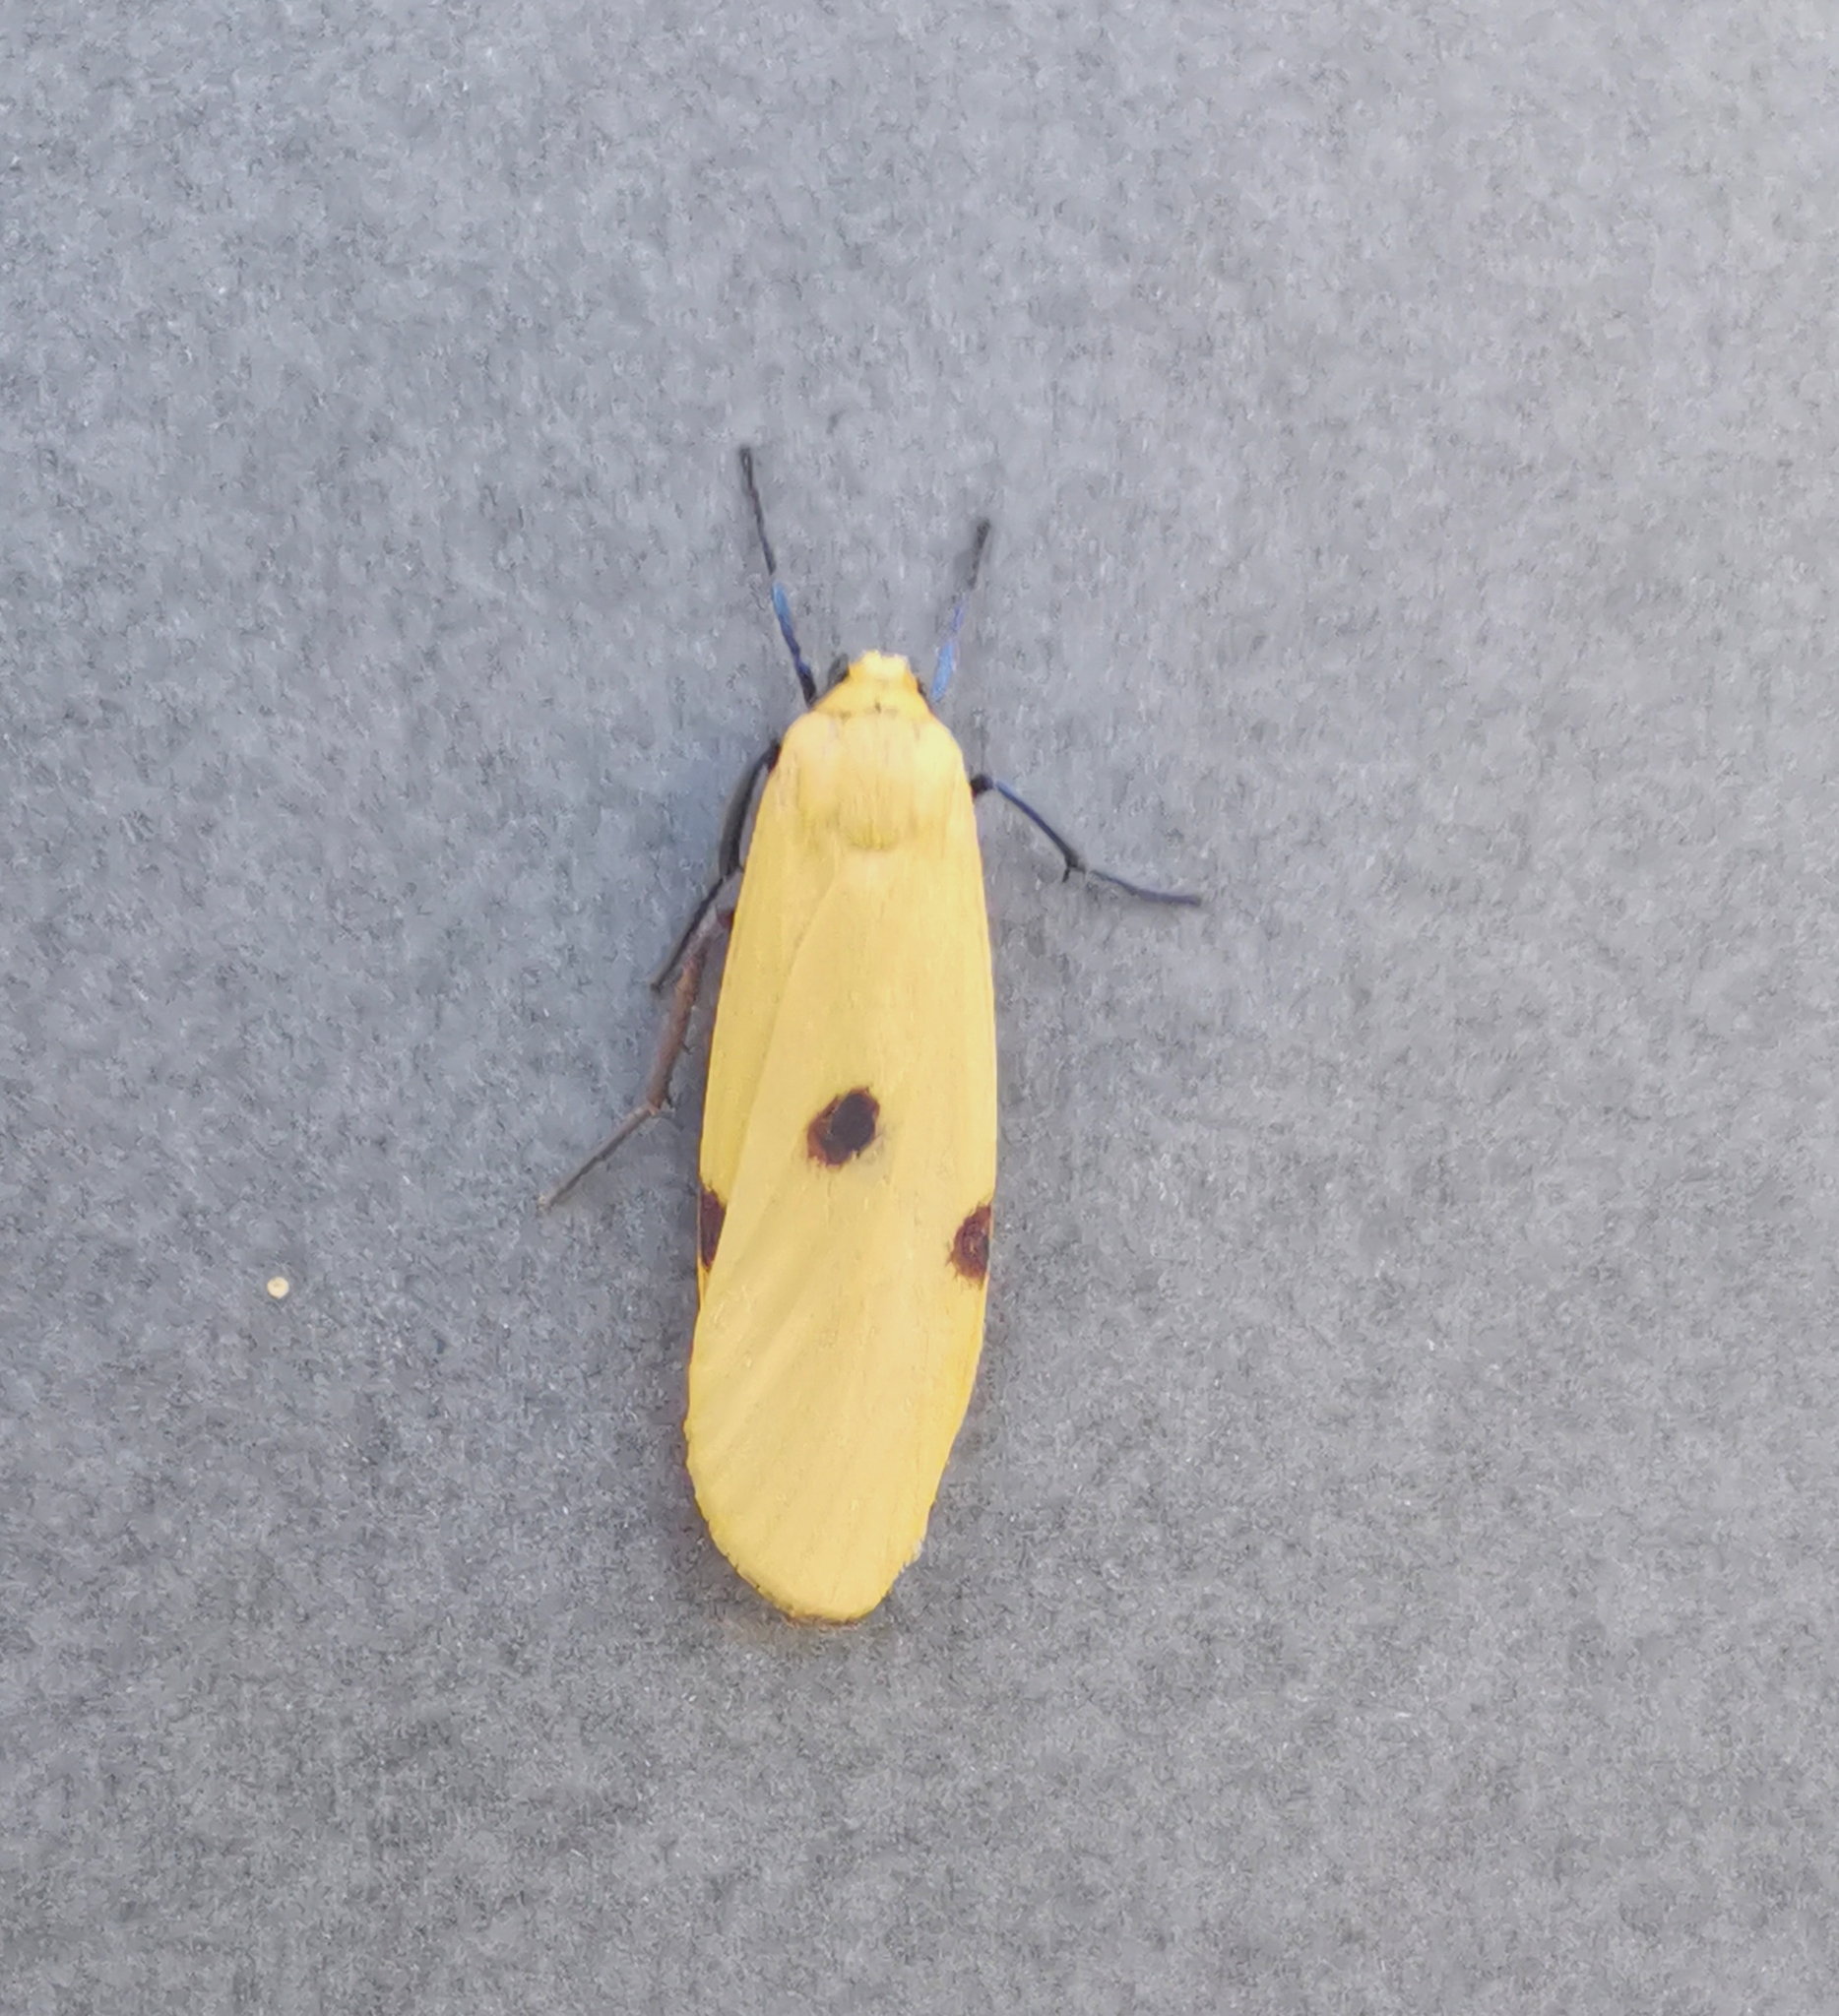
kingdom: Animalia
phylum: Arthropoda
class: Insecta
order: Lepidoptera
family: Erebidae
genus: Lithosia
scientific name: Lithosia quadra
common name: Four-spotted footman
